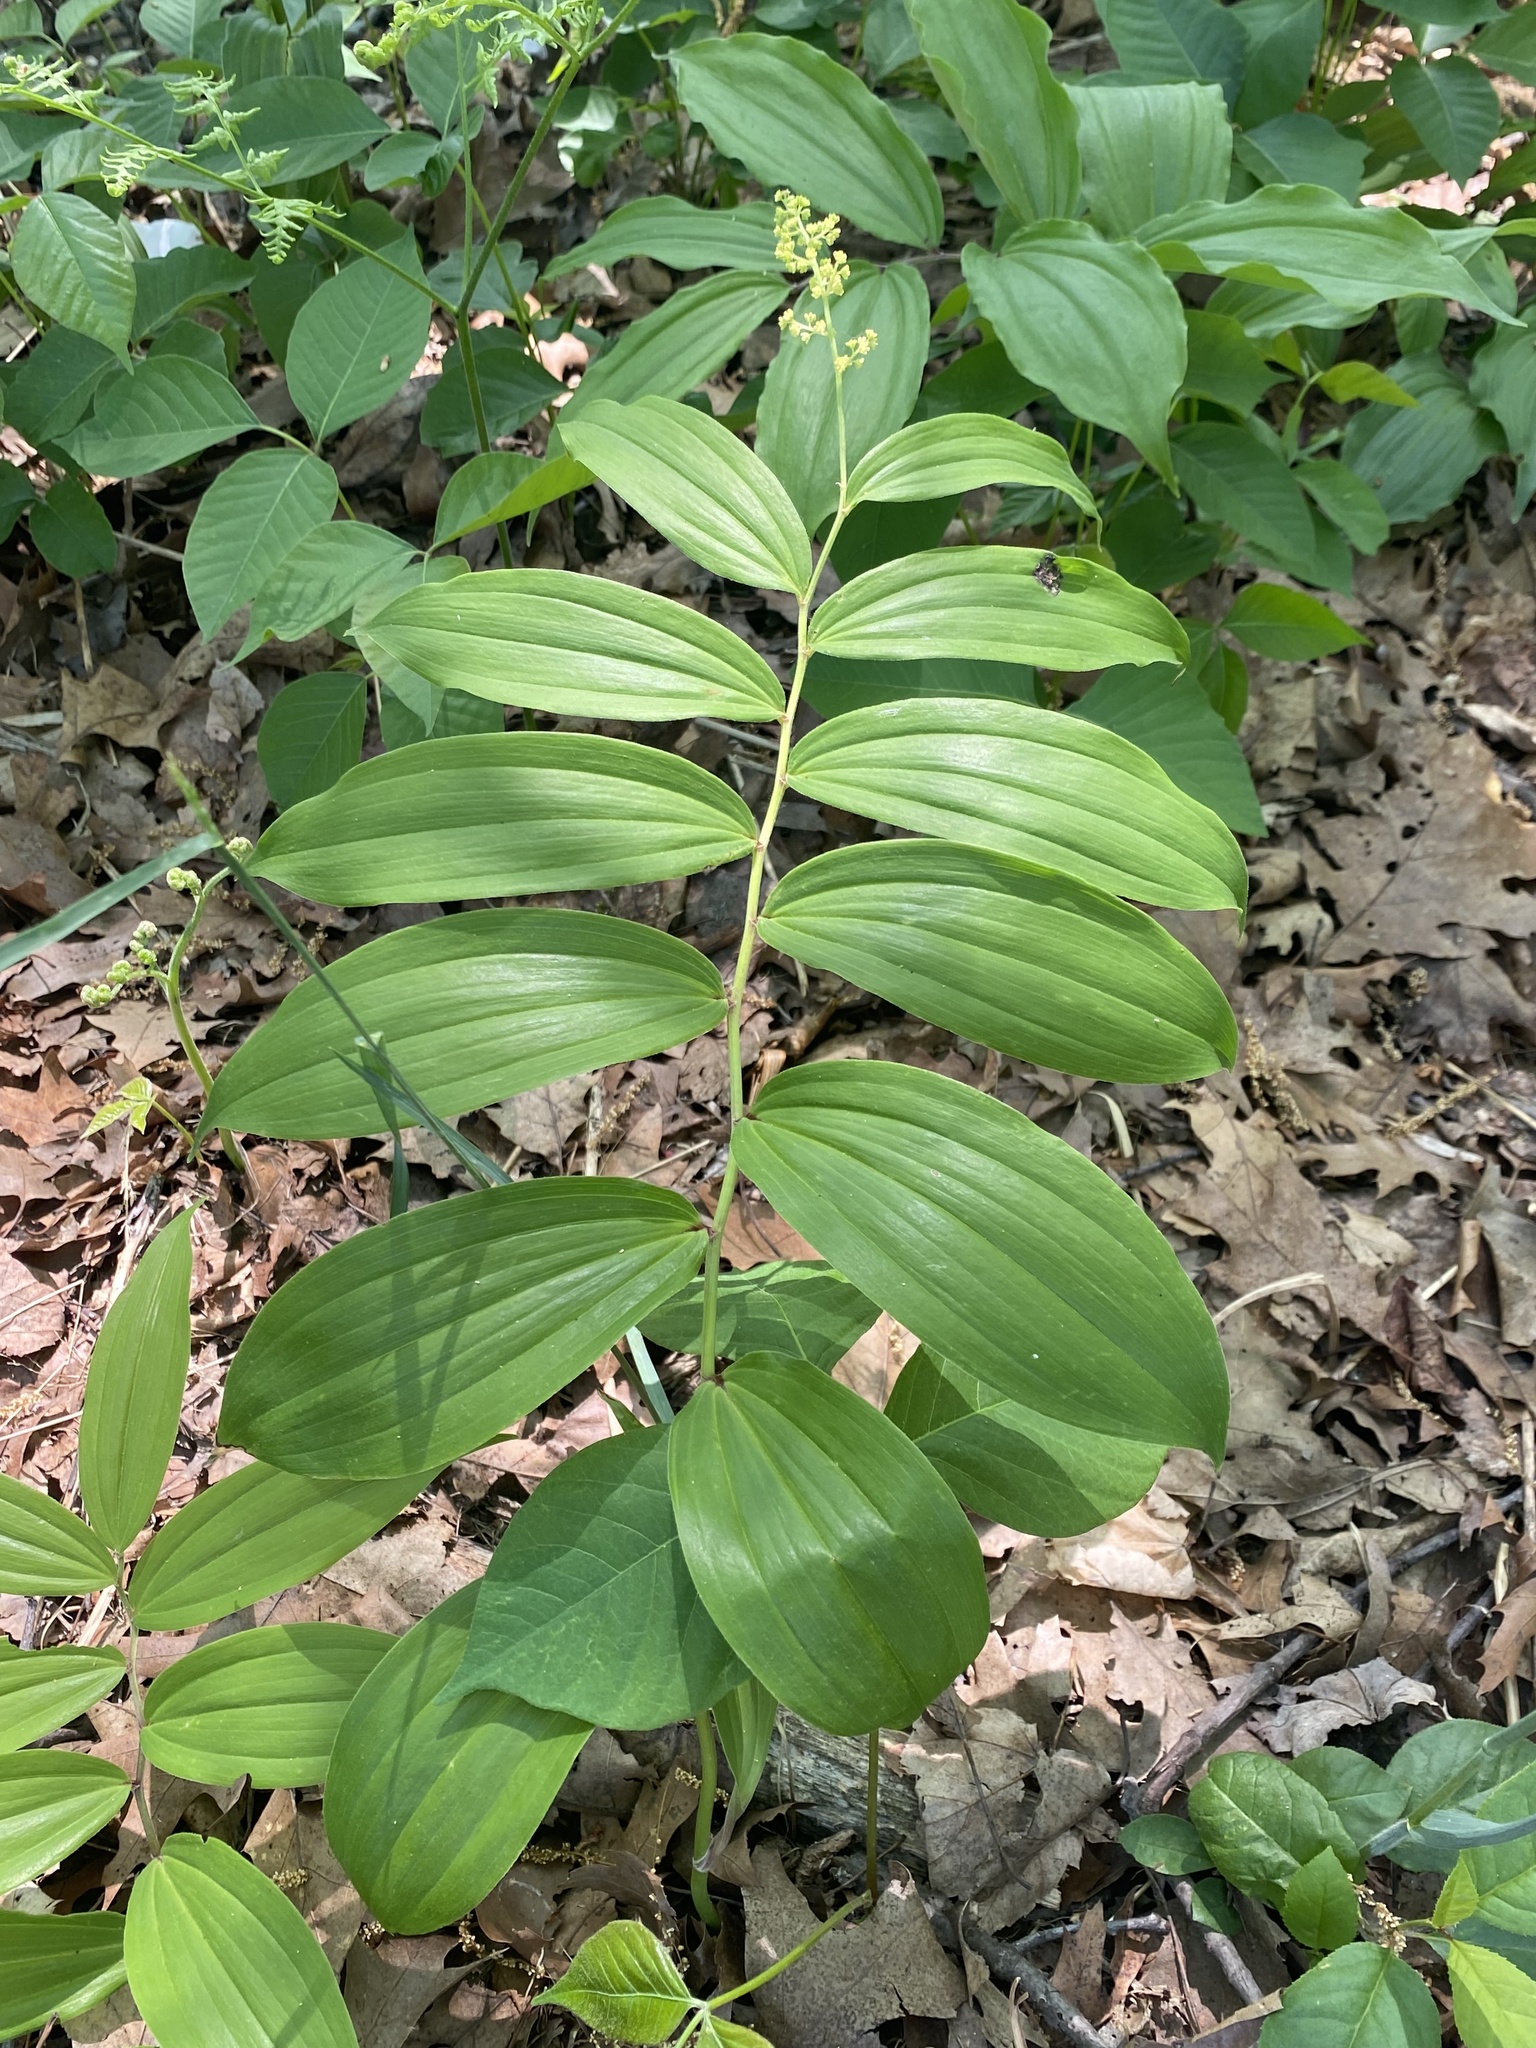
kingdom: Plantae
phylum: Tracheophyta
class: Liliopsida
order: Asparagales
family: Asparagaceae
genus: Maianthemum
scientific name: Maianthemum racemosum
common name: False spikenard
